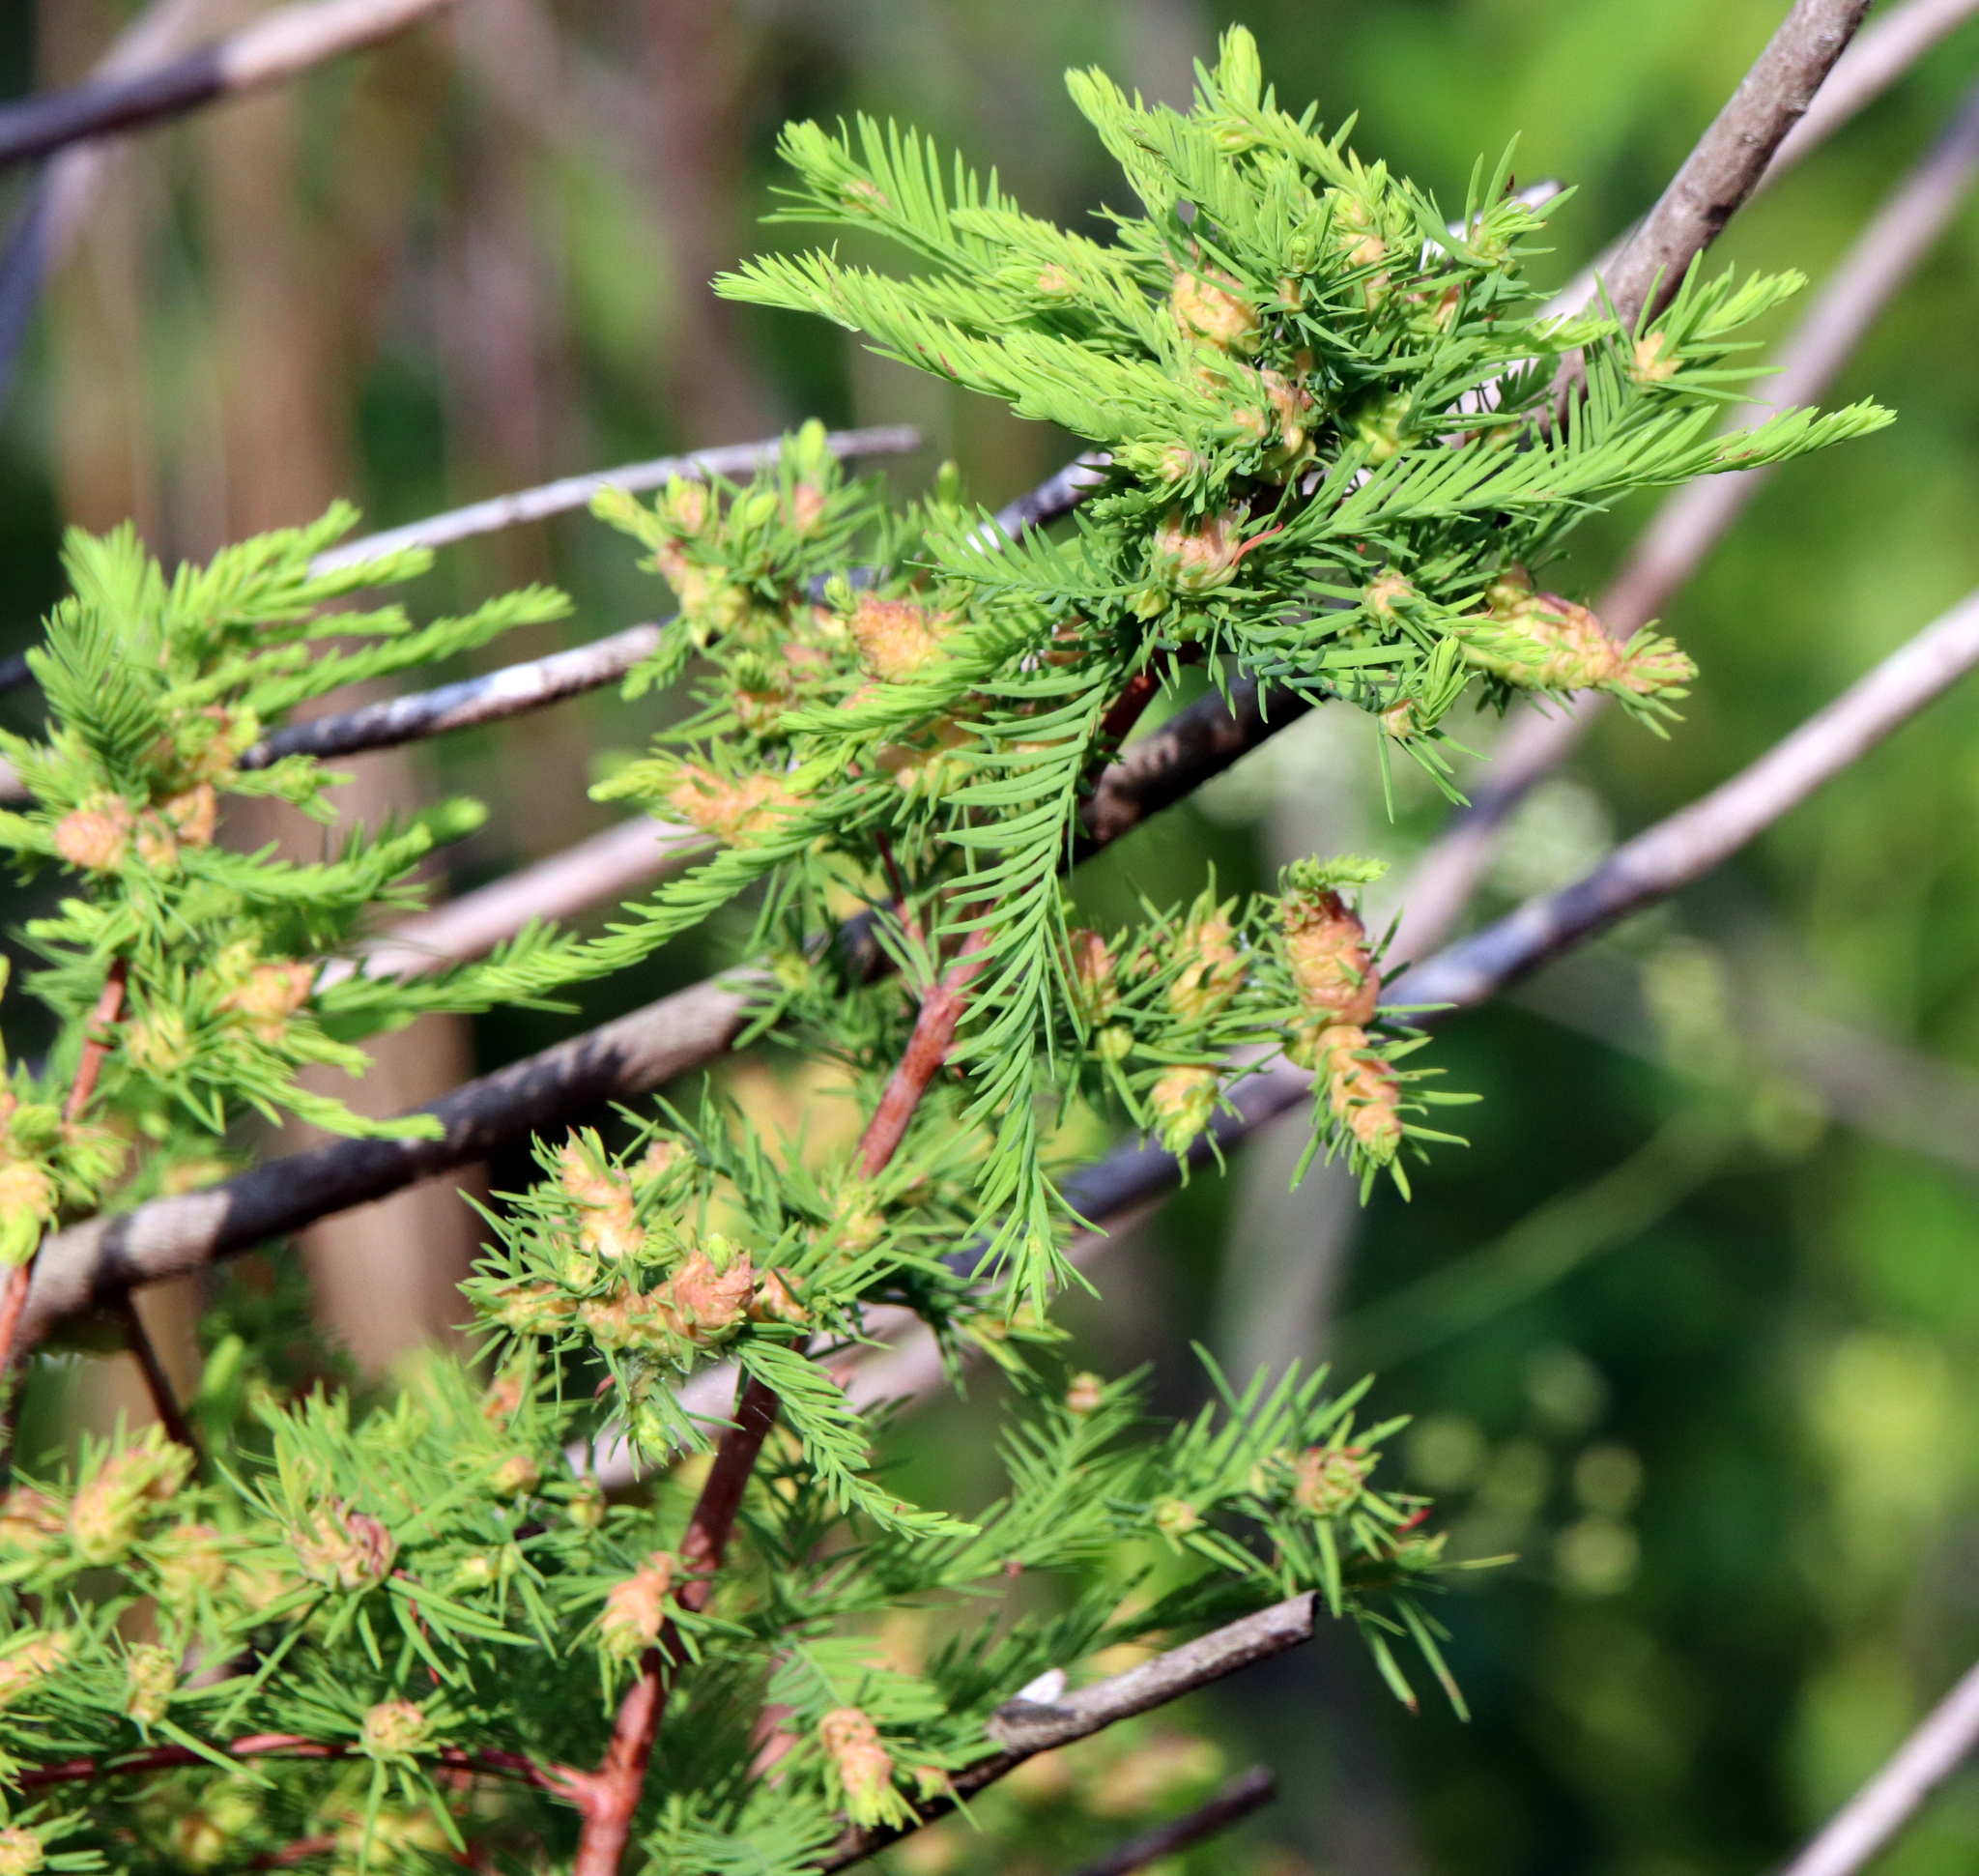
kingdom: Plantae
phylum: Tracheophyta
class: Pinopsida
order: Pinales
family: Cupressaceae
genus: Taxodium
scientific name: Taxodium distichum
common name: Bald cypress
